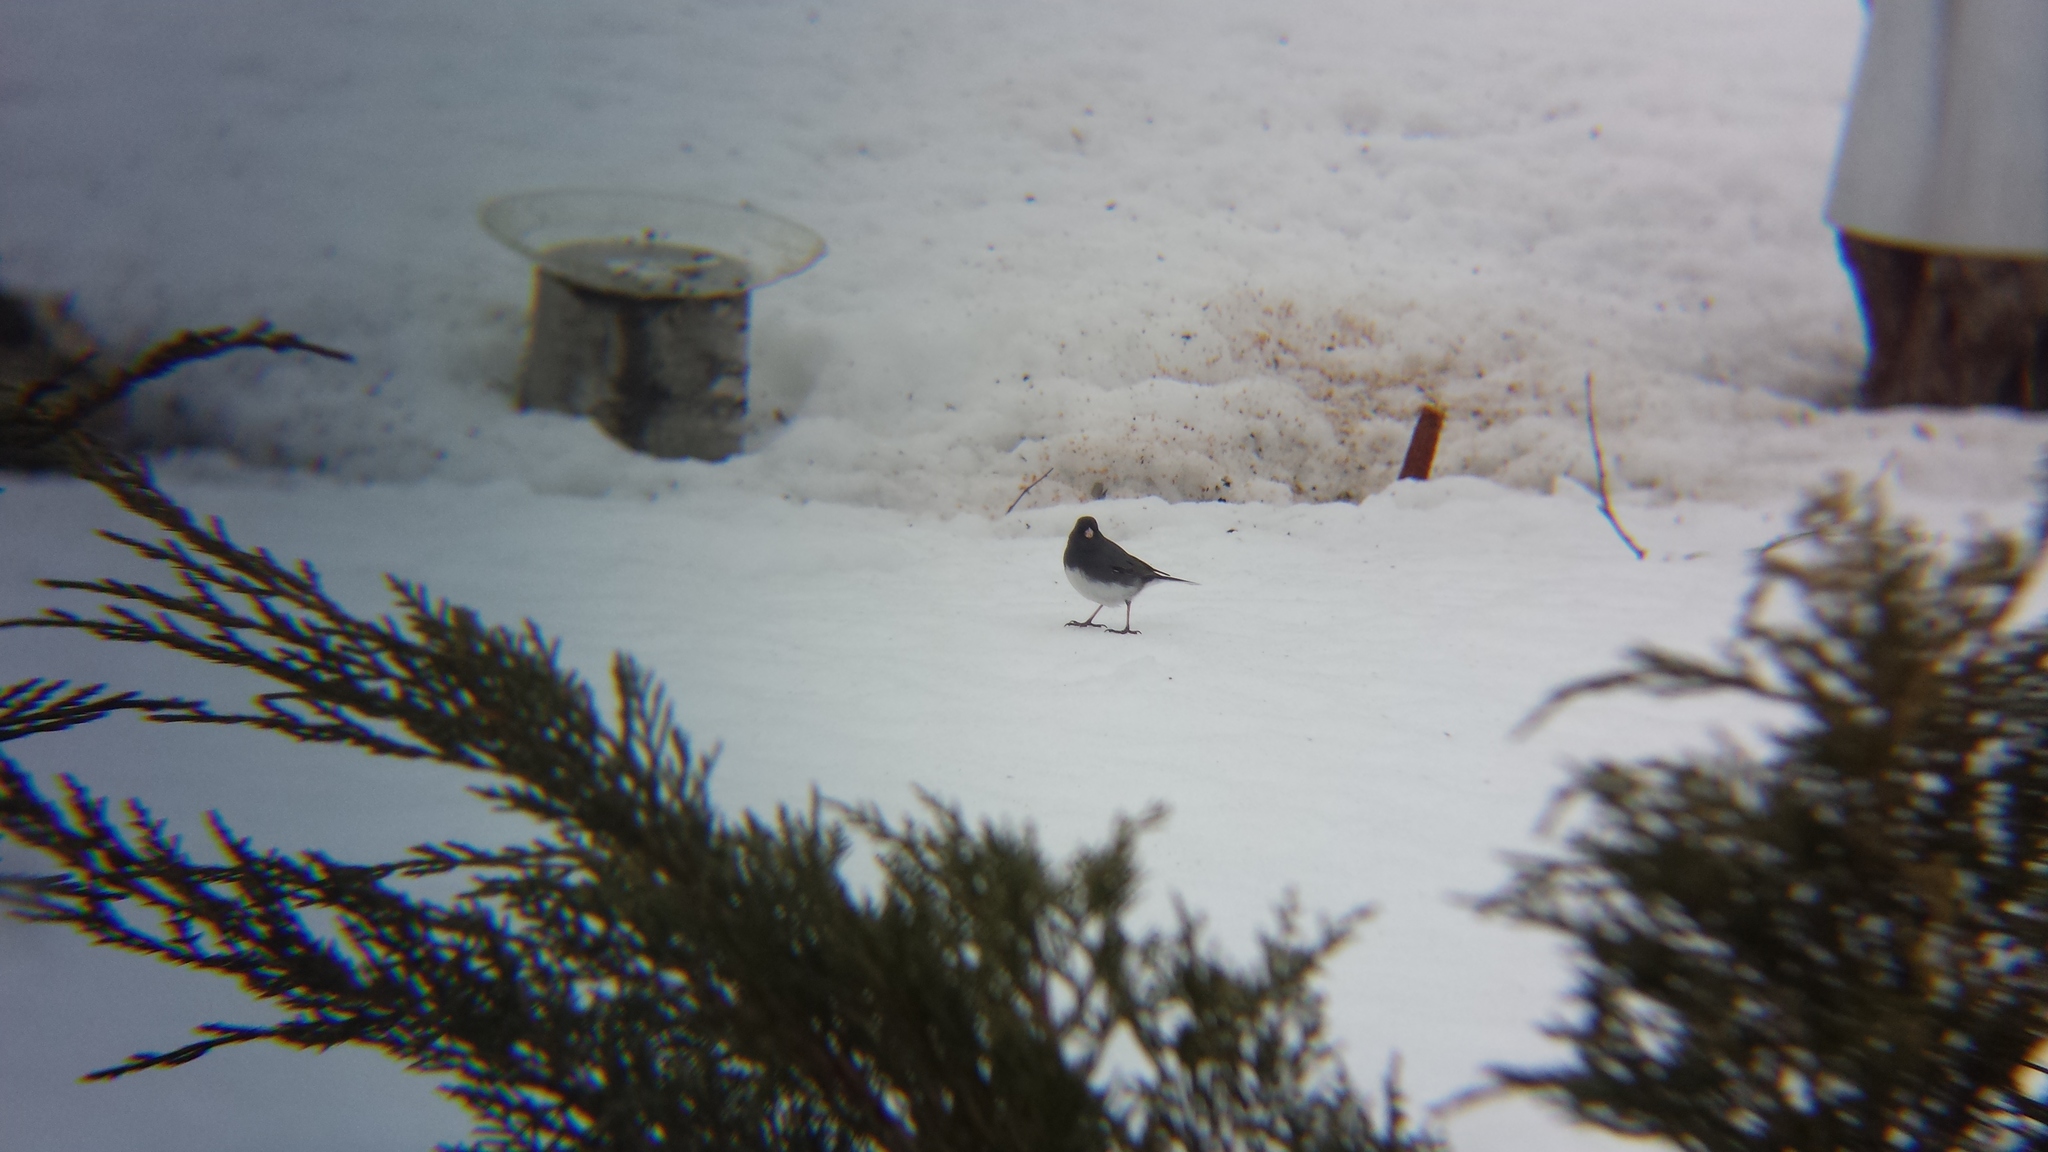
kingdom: Animalia
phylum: Chordata
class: Aves
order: Passeriformes
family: Passerellidae
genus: Junco
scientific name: Junco hyemalis
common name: Dark-eyed junco
